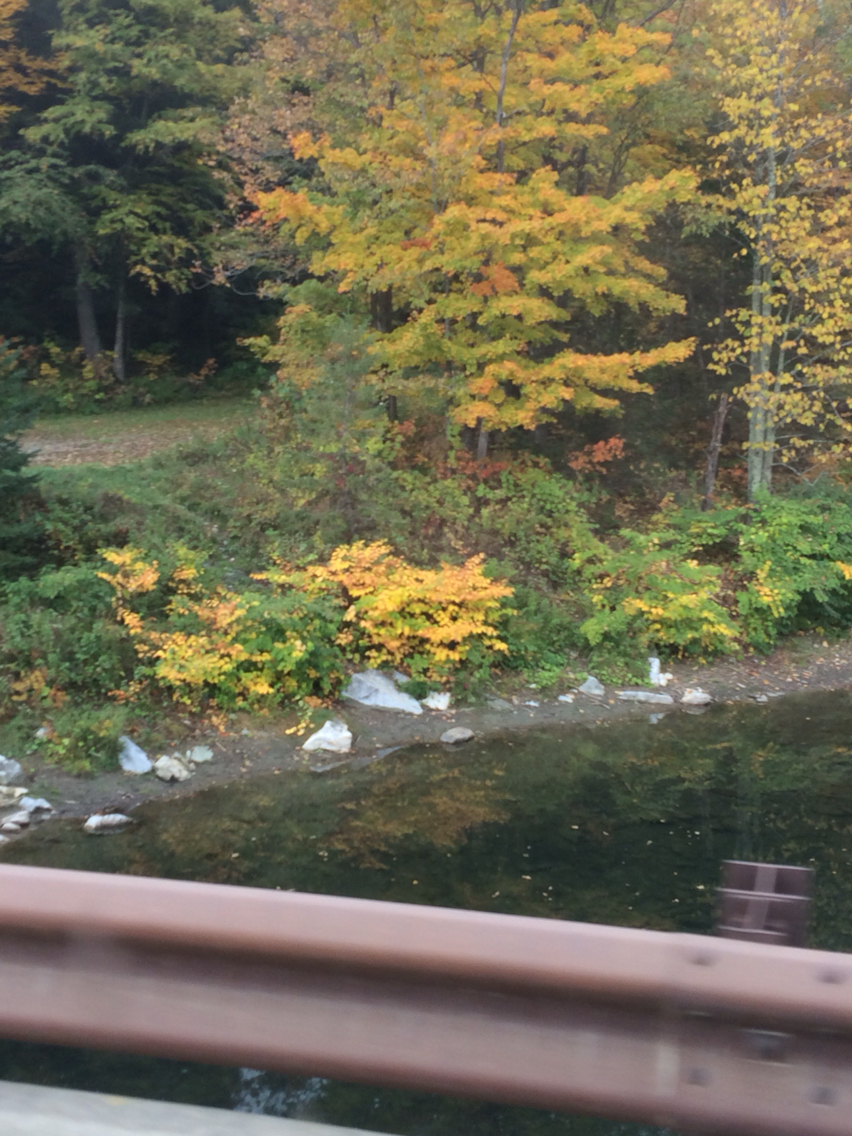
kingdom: Plantae
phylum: Tracheophyta
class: Magnoliopsida
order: Caryophyllales
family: Polygonaceae
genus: Reynoutria
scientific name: Reynoutria japonica
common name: Japanese knotweed
